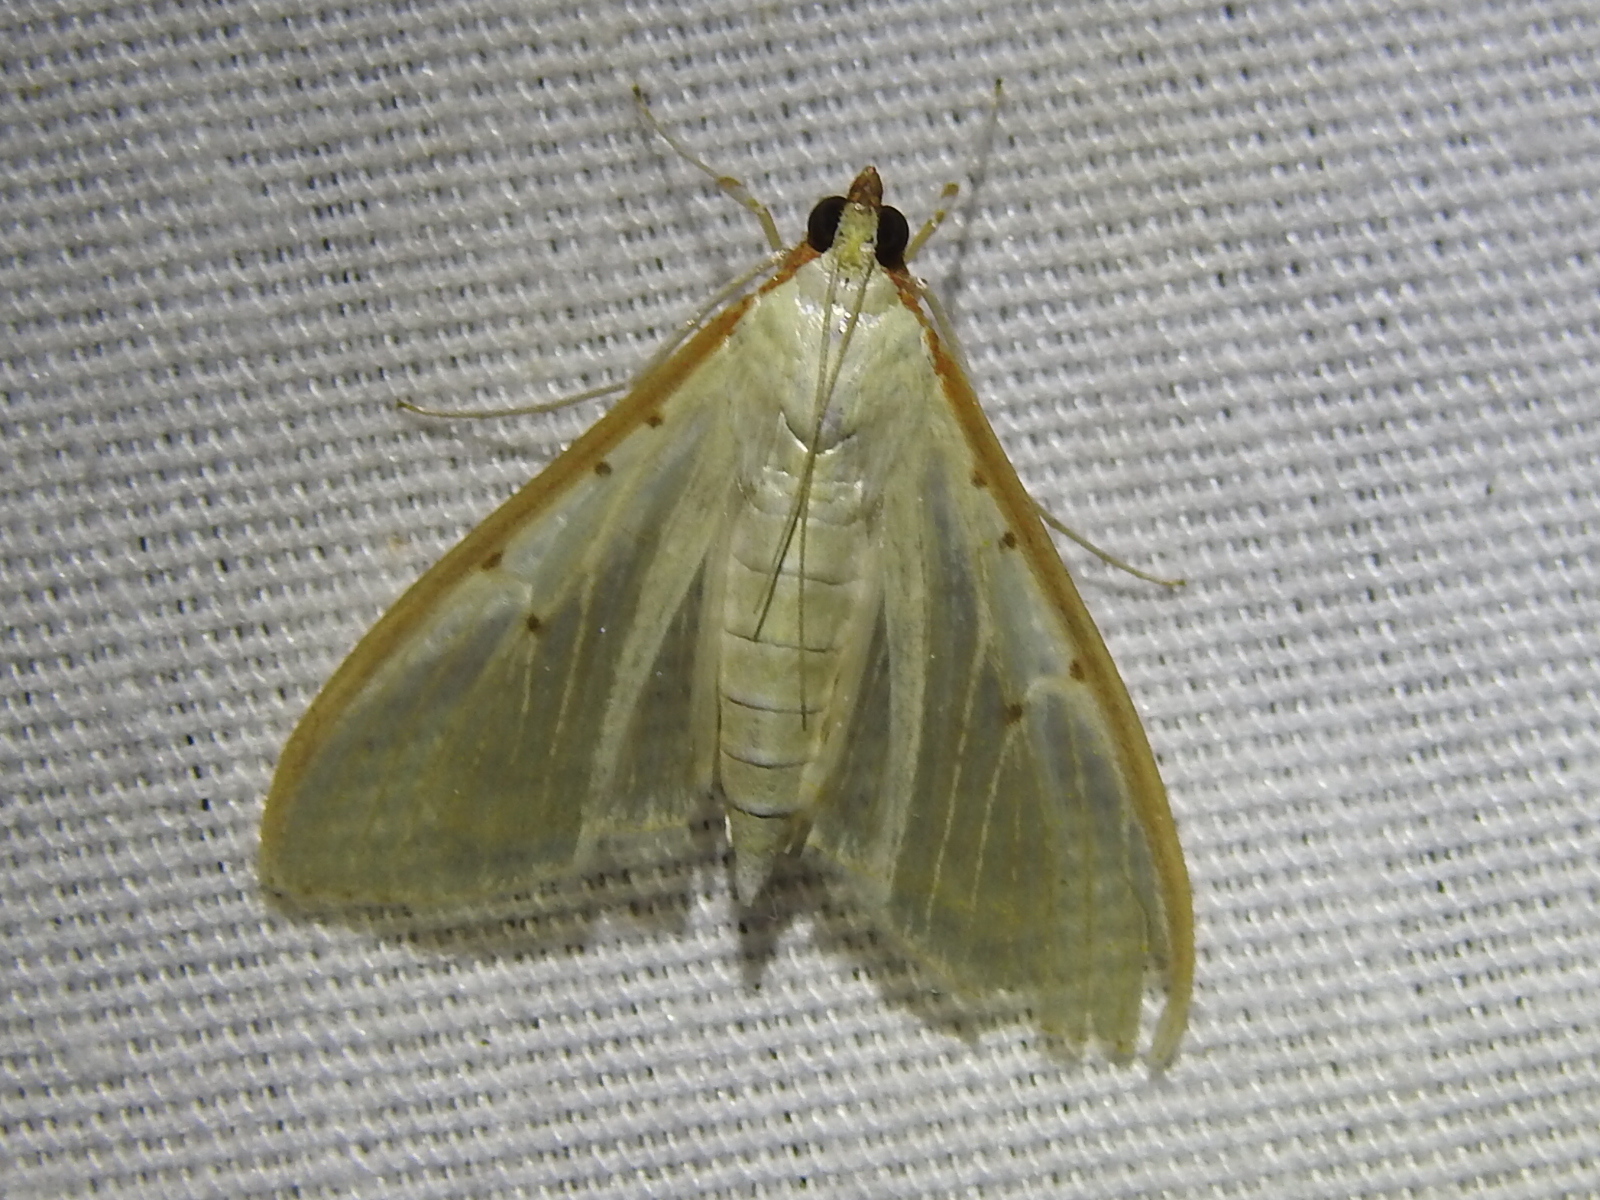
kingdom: Animalia
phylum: Arthropoda
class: Insecta
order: Lepidoptera
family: Crambidae
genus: Palpita
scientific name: Palpita quadristigmalis
